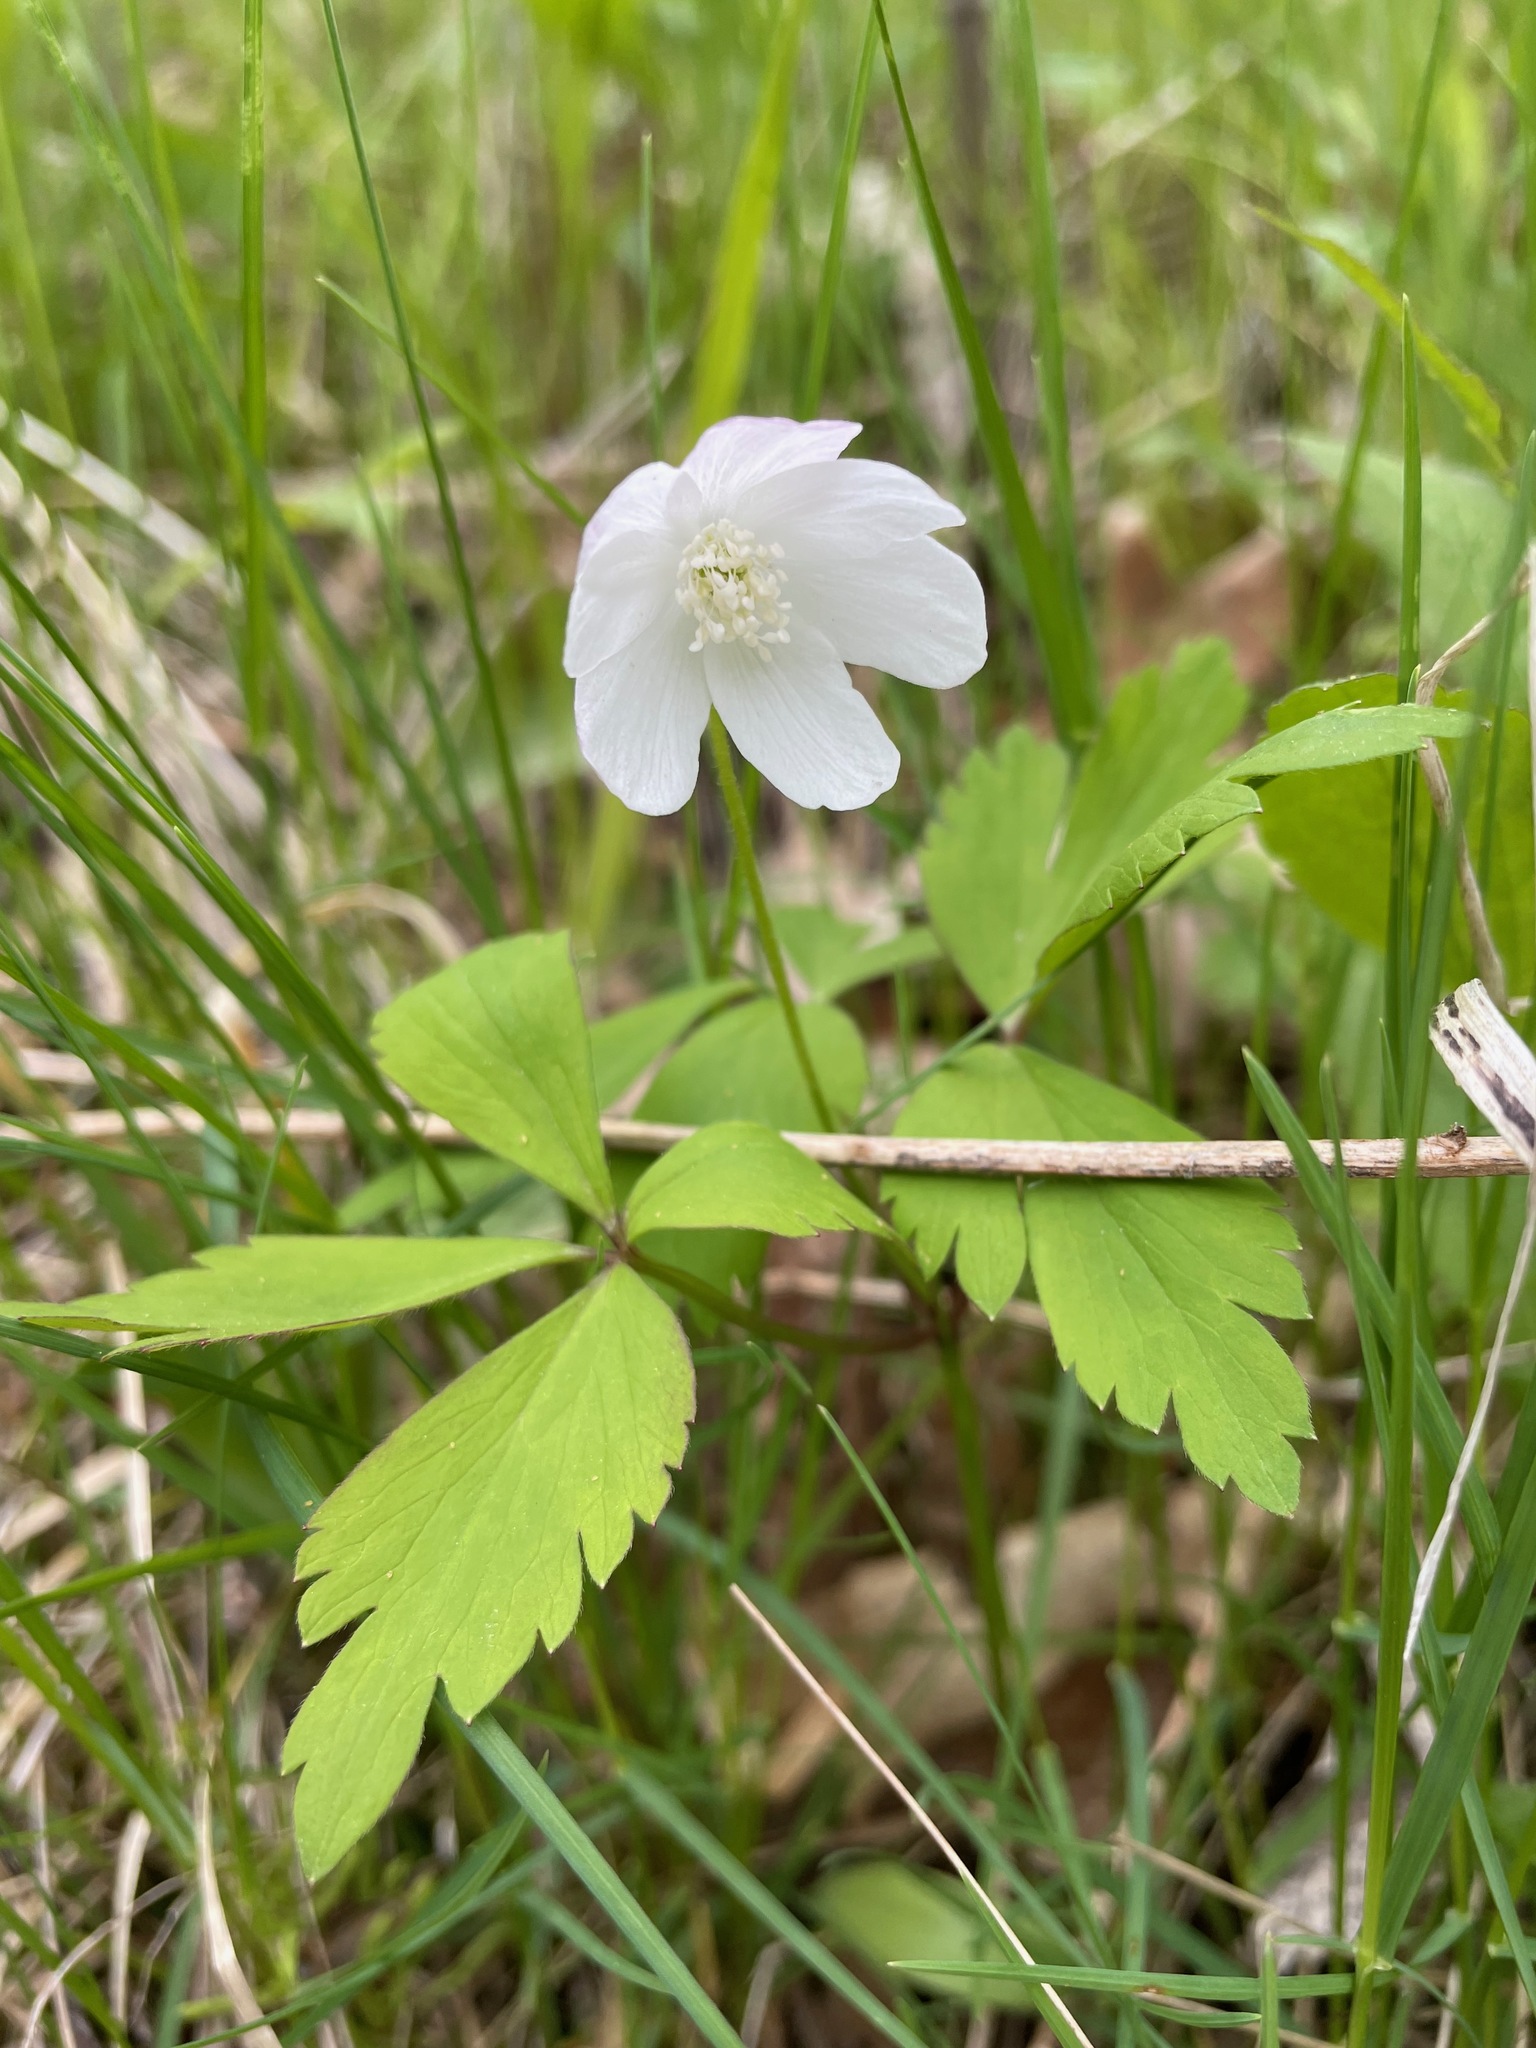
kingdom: Plantae
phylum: Tracheophyta
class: Magnoliopsida
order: Ranunculales
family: Ranunculaceae
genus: Anemone
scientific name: Anemone quinquefolia
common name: Wood anemone
